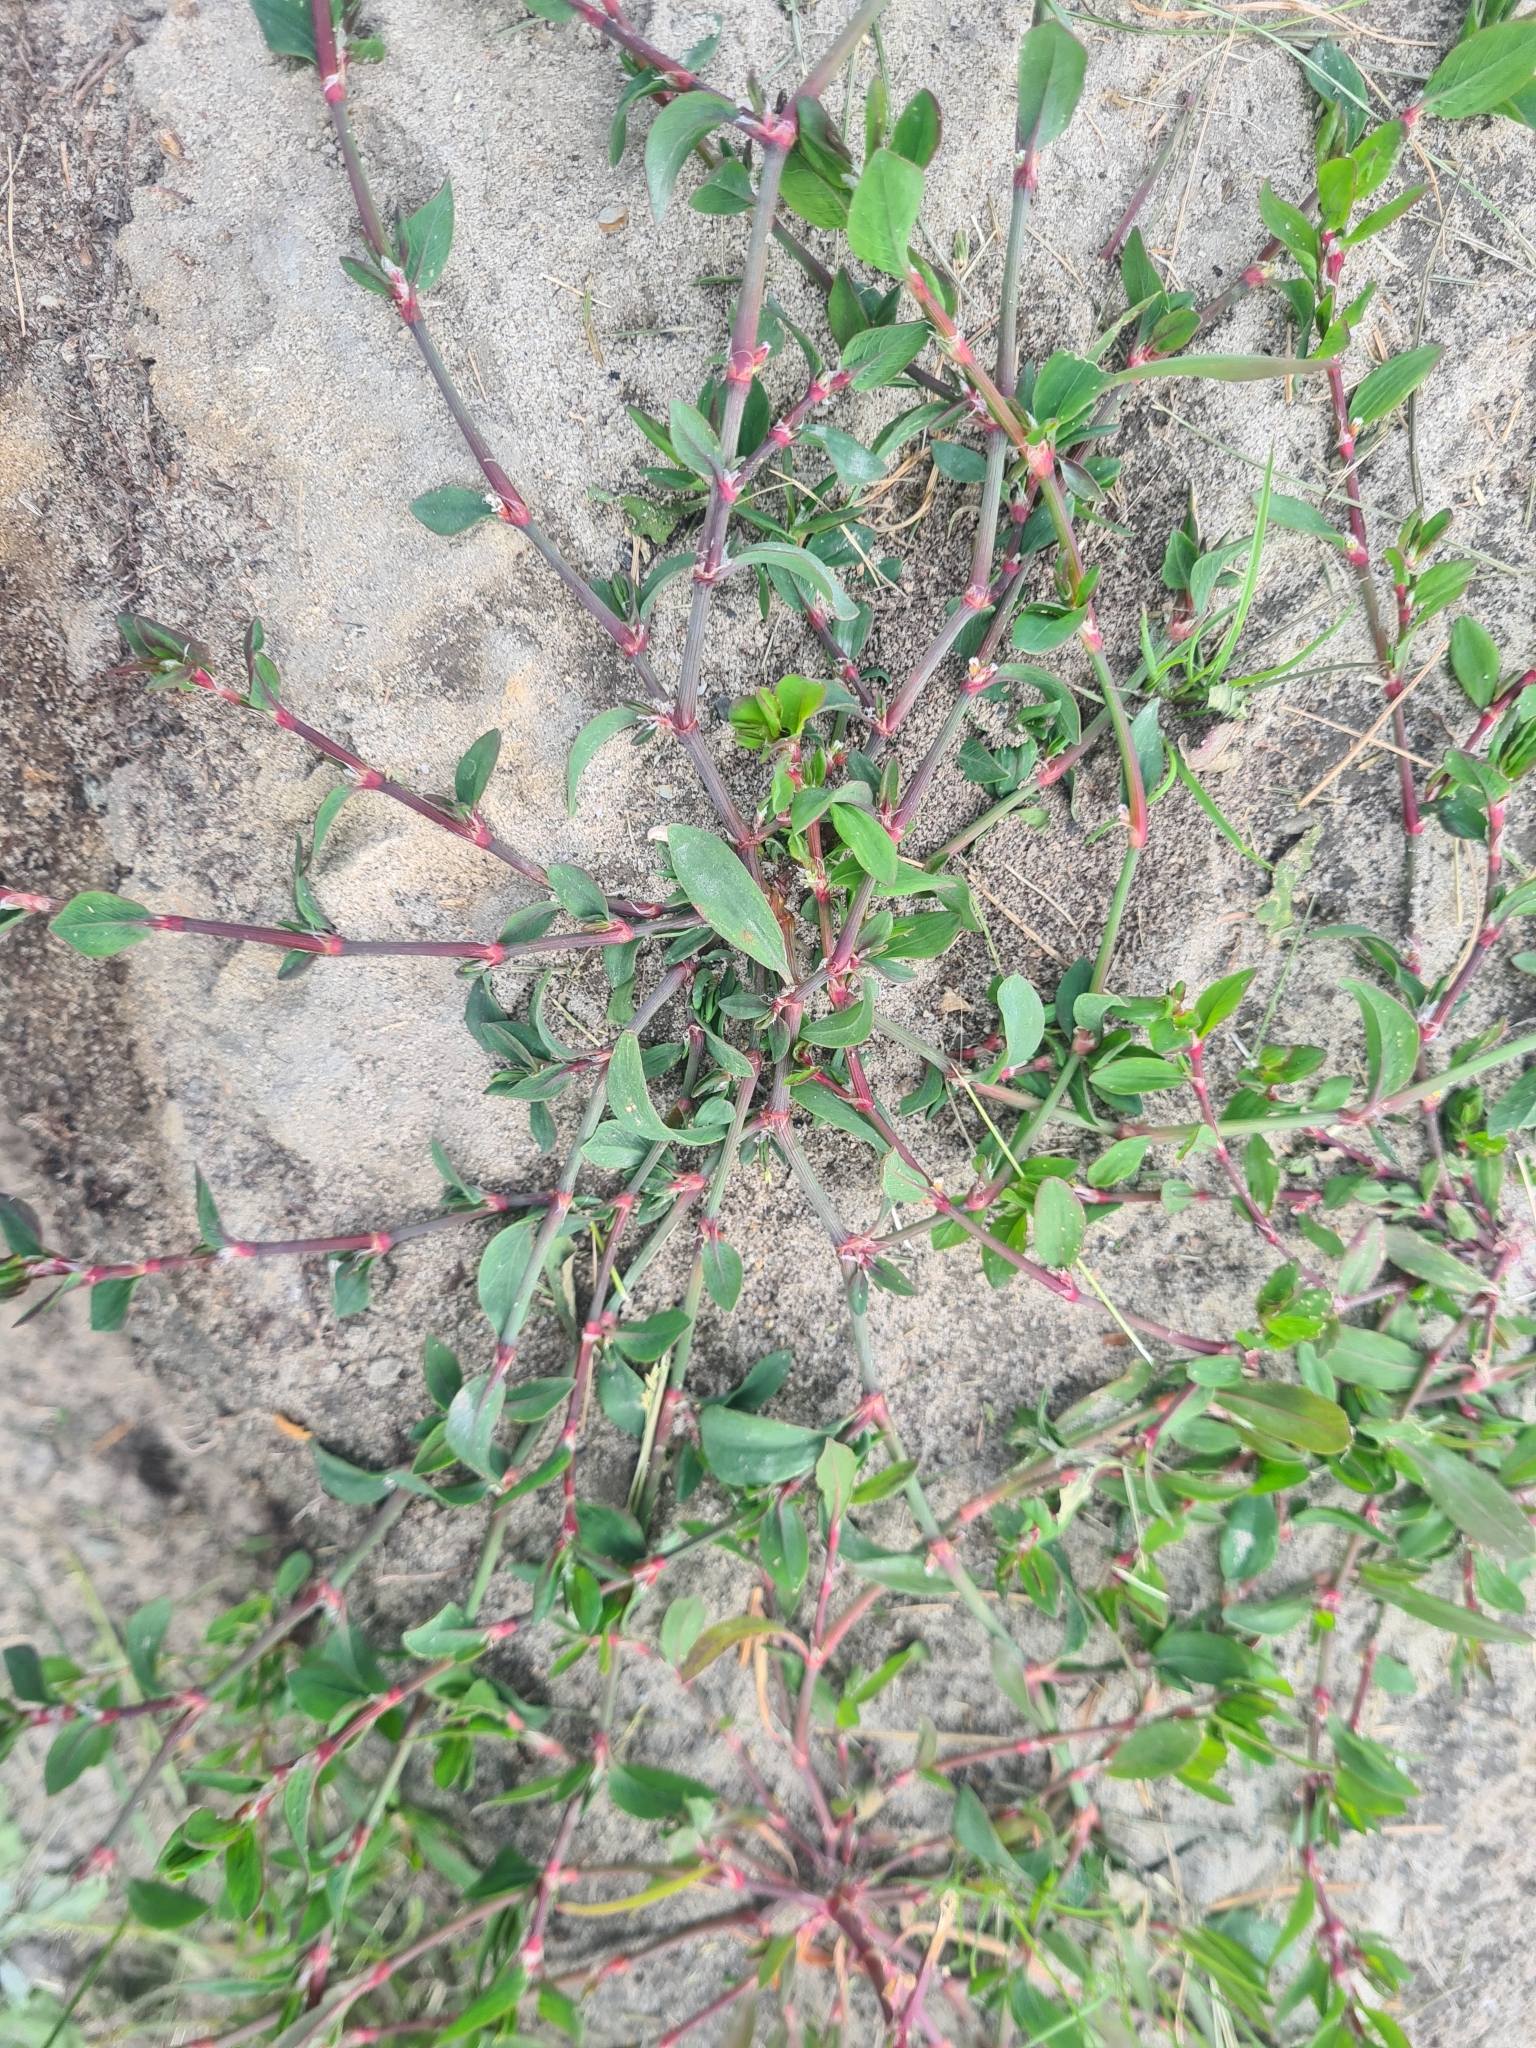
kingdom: Plantae
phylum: Tracheophyta
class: Magnoliopsida
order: Caryophyllales
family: Polygonaceae
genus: Polygonum
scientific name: Polygonum
